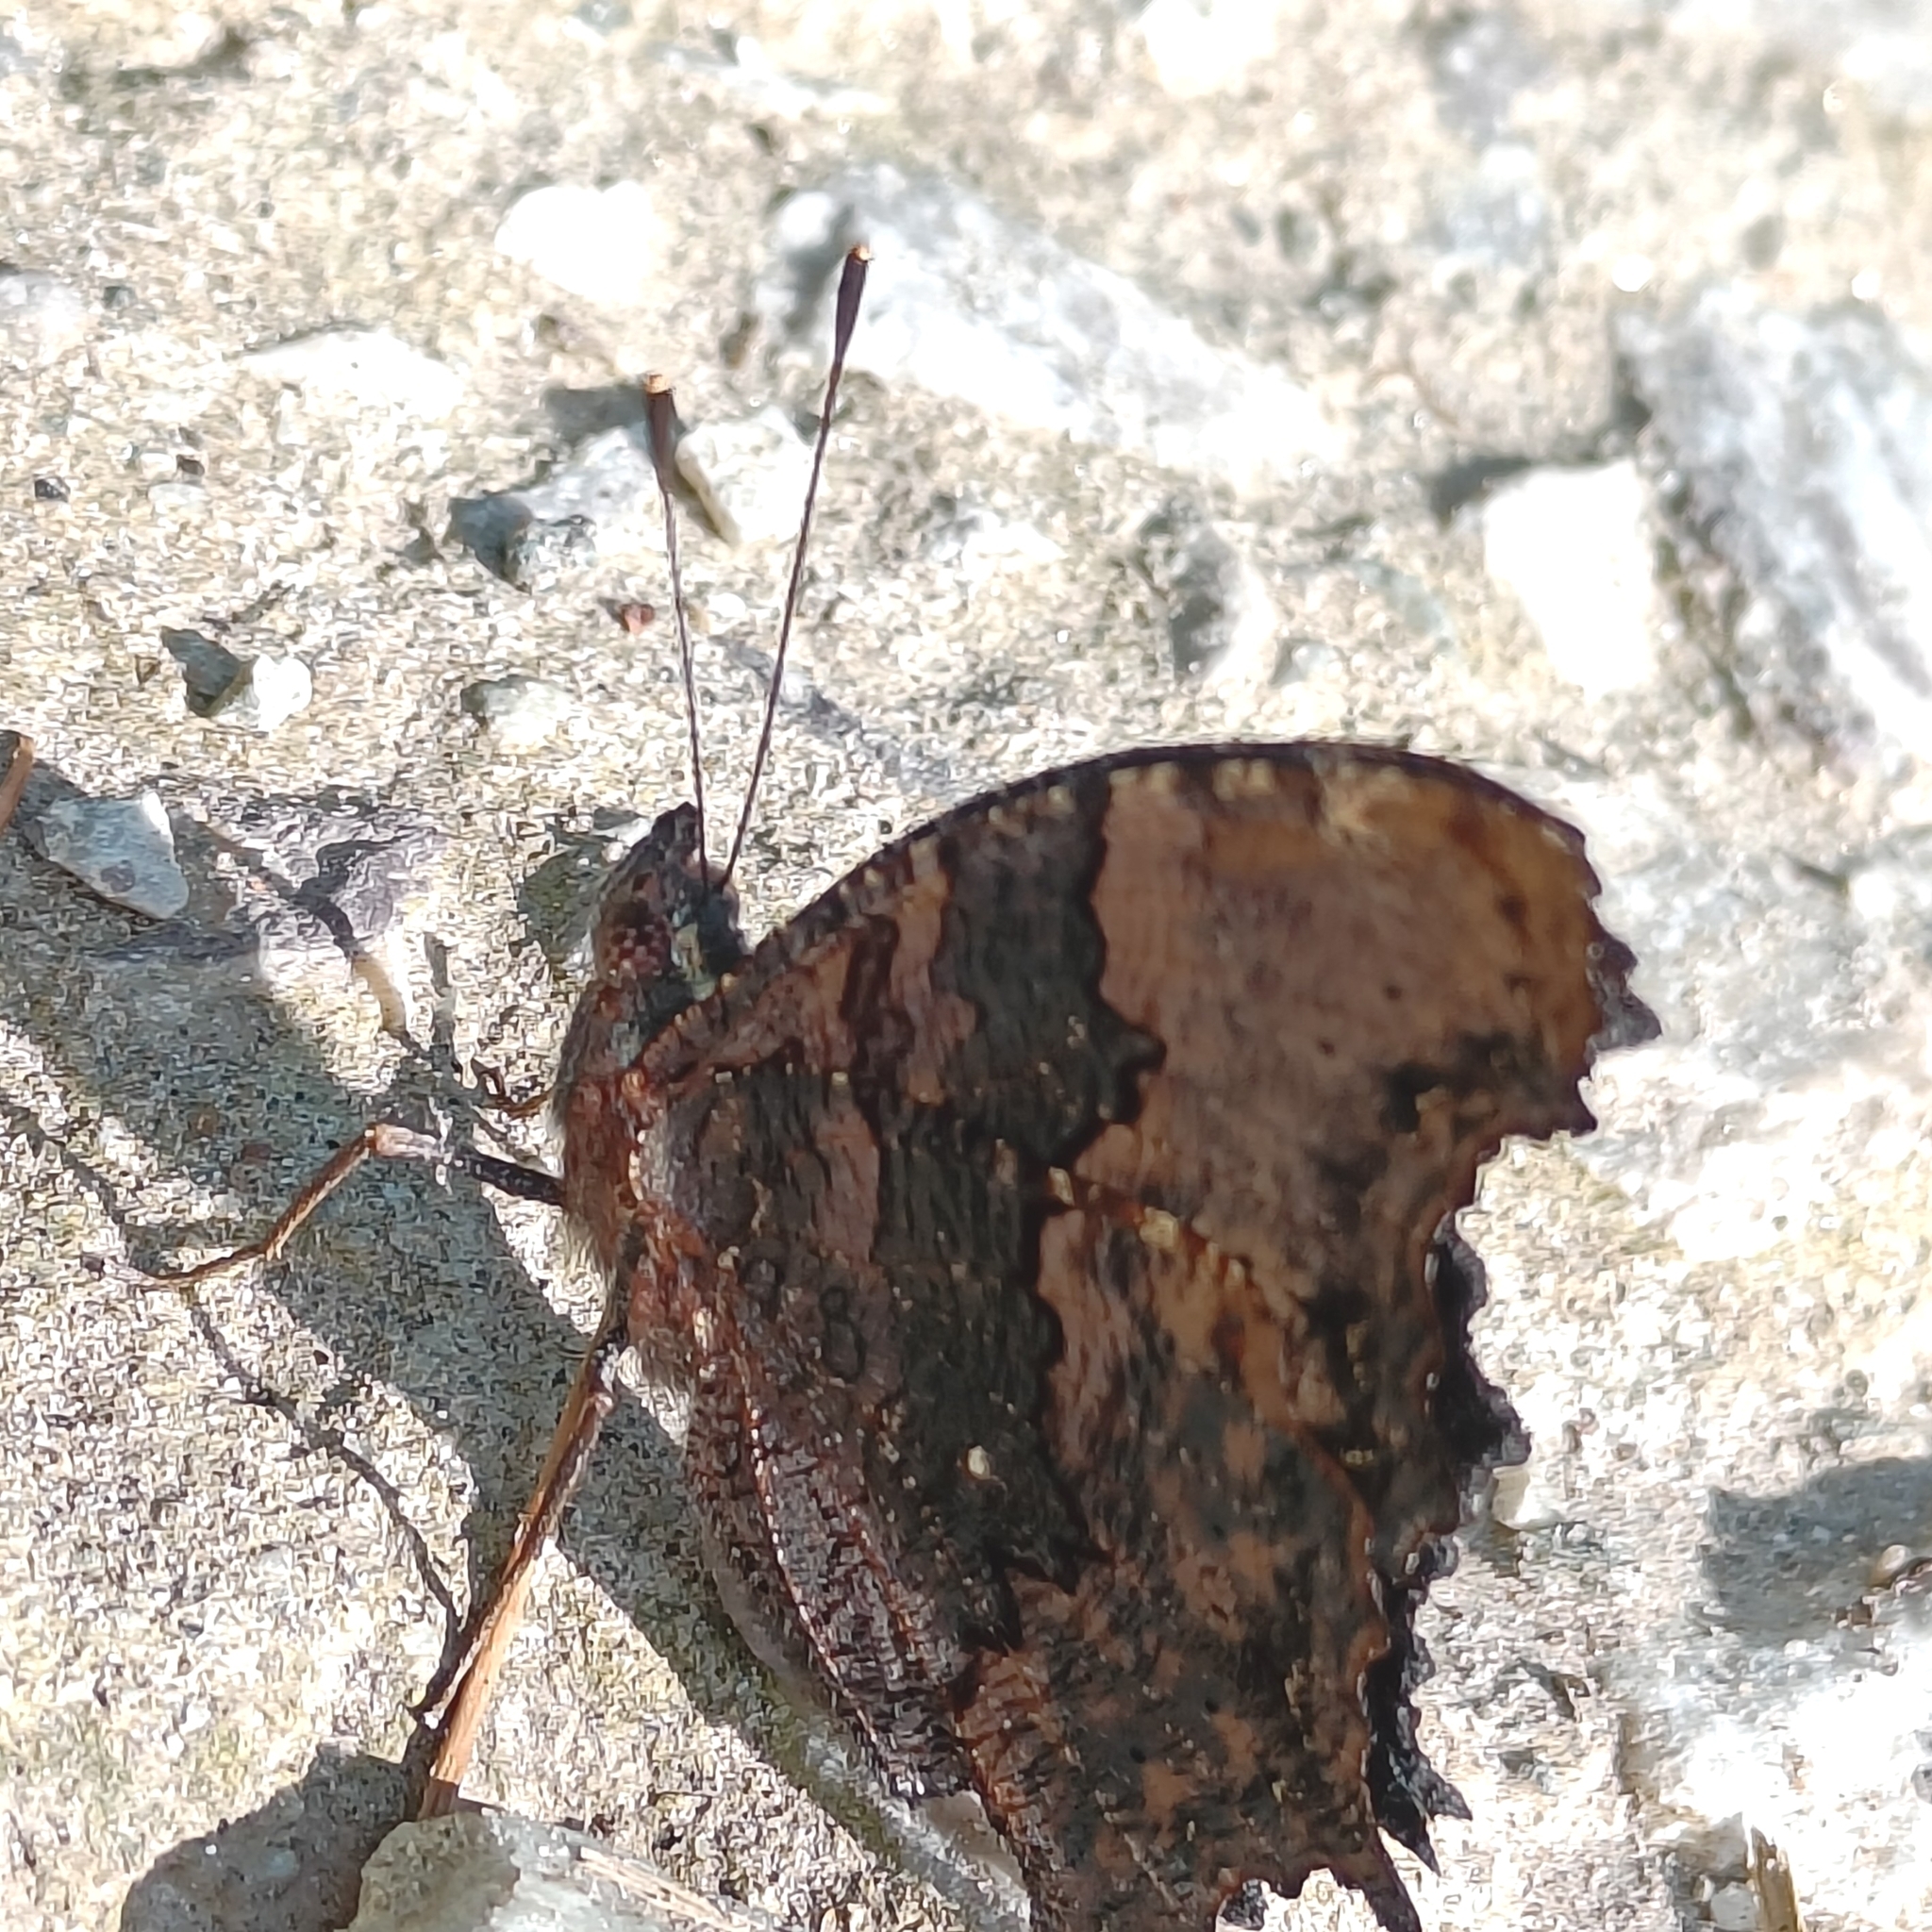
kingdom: Animalia
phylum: Arthropoda
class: Insecta
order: Lepidoptera
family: Nymphalidae
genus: Vanessa
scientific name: Vanessa Kaniska canace
